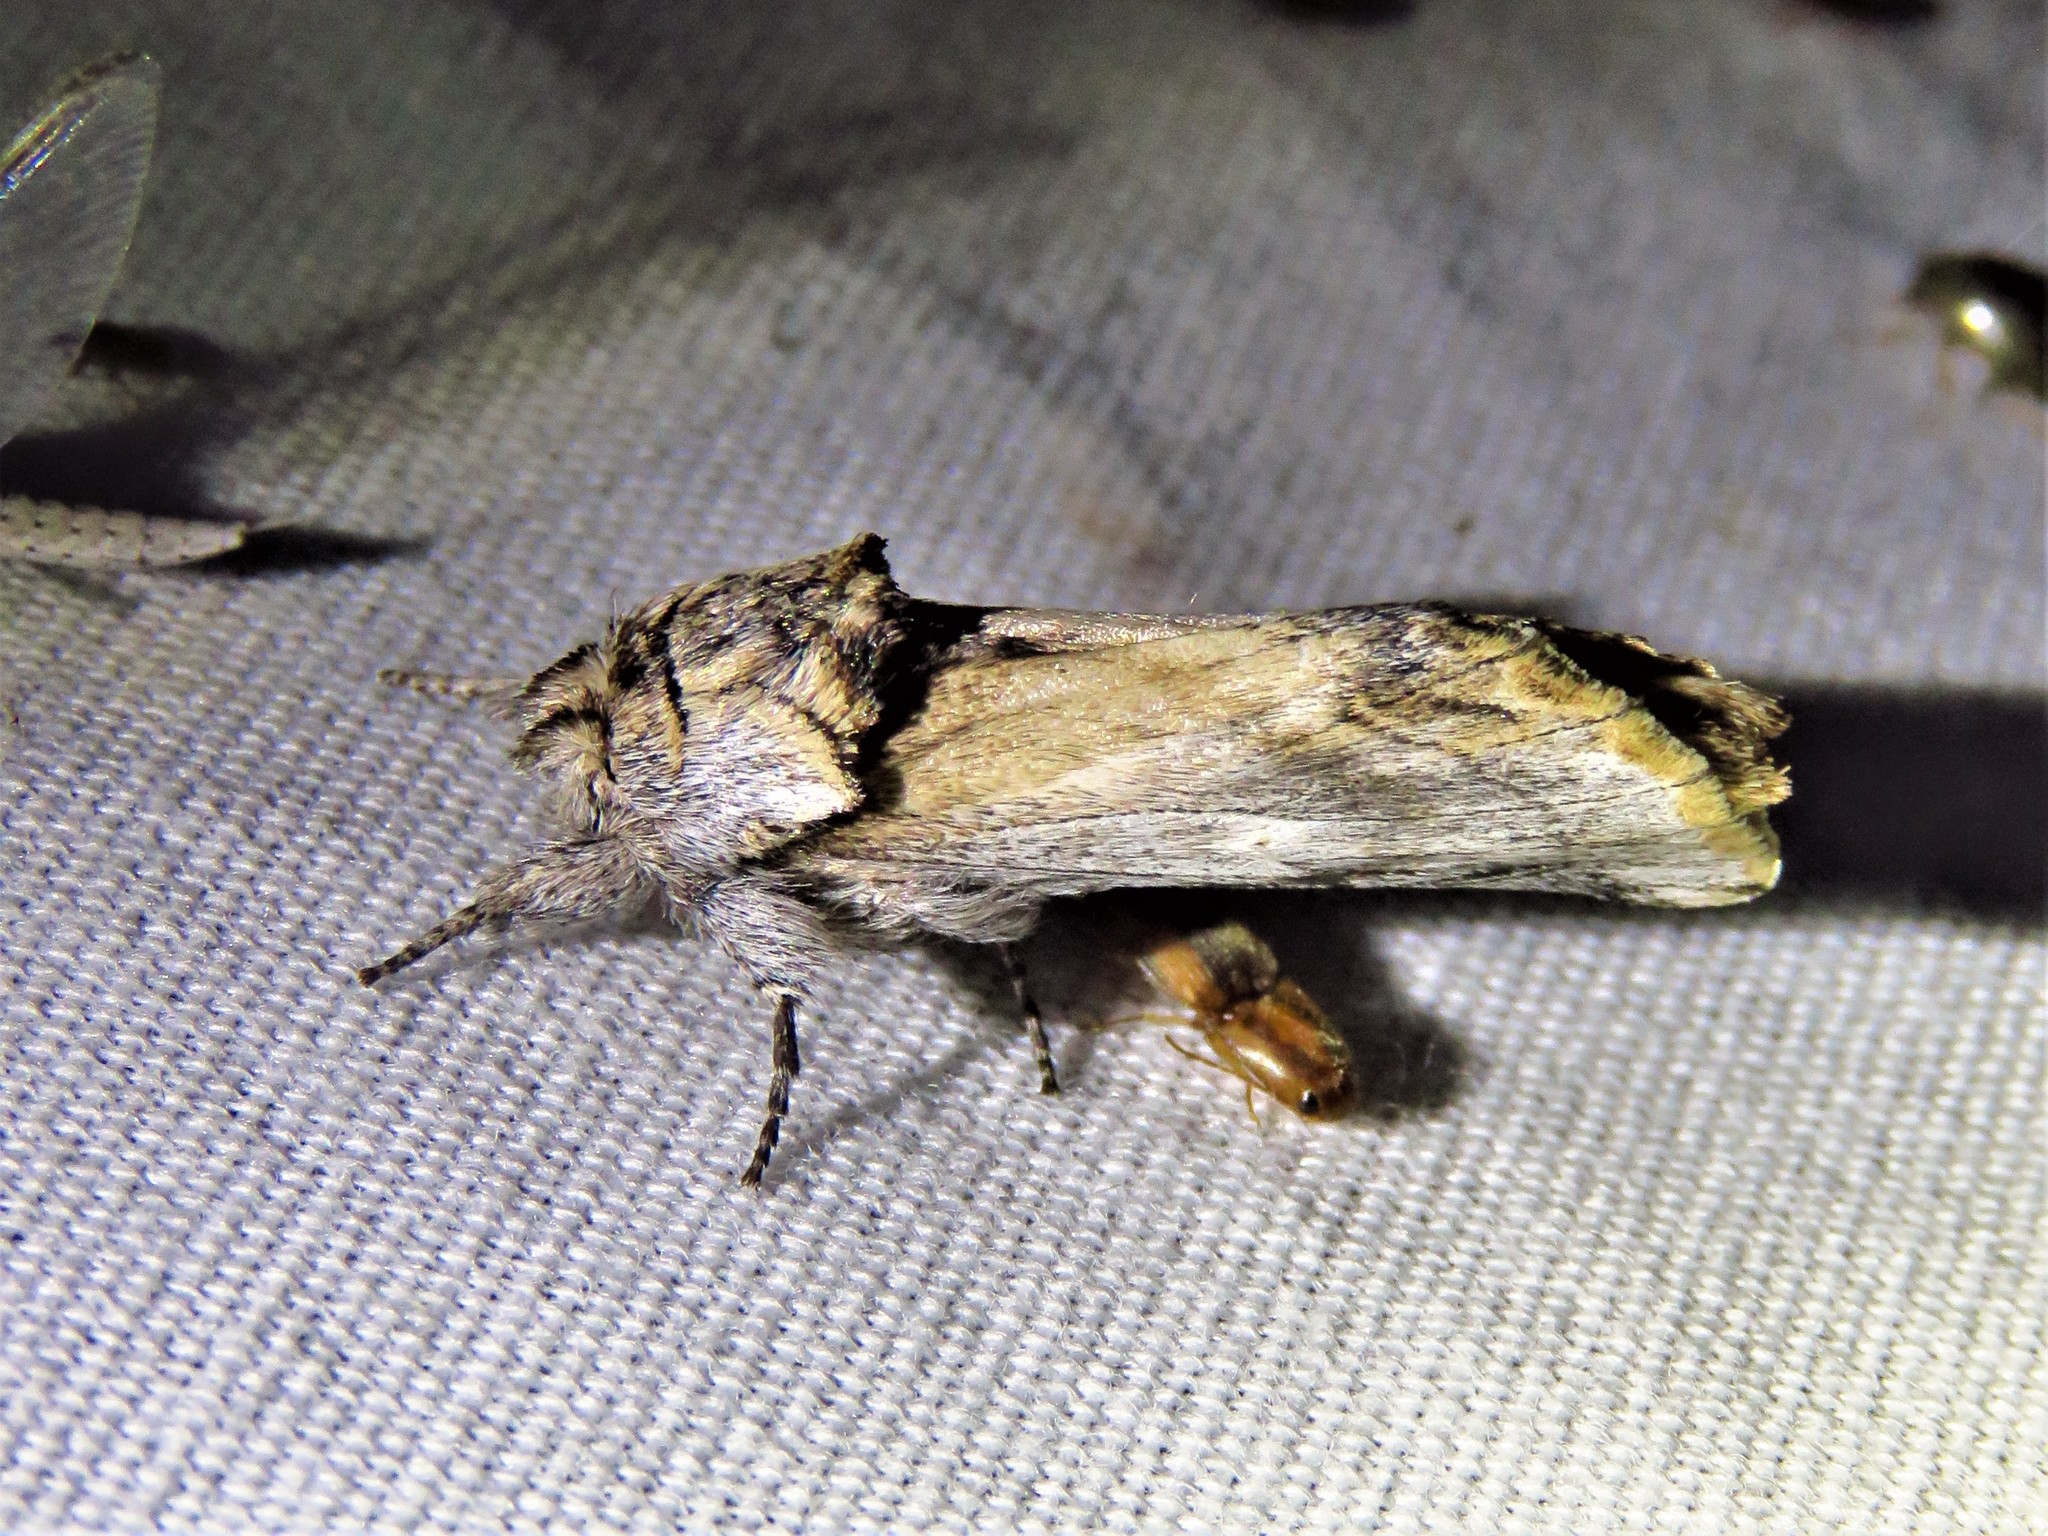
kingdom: Animalia
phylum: Arthropoda
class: Insecta
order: Lepidoptera
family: Notodontidae
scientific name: Notodontidae
